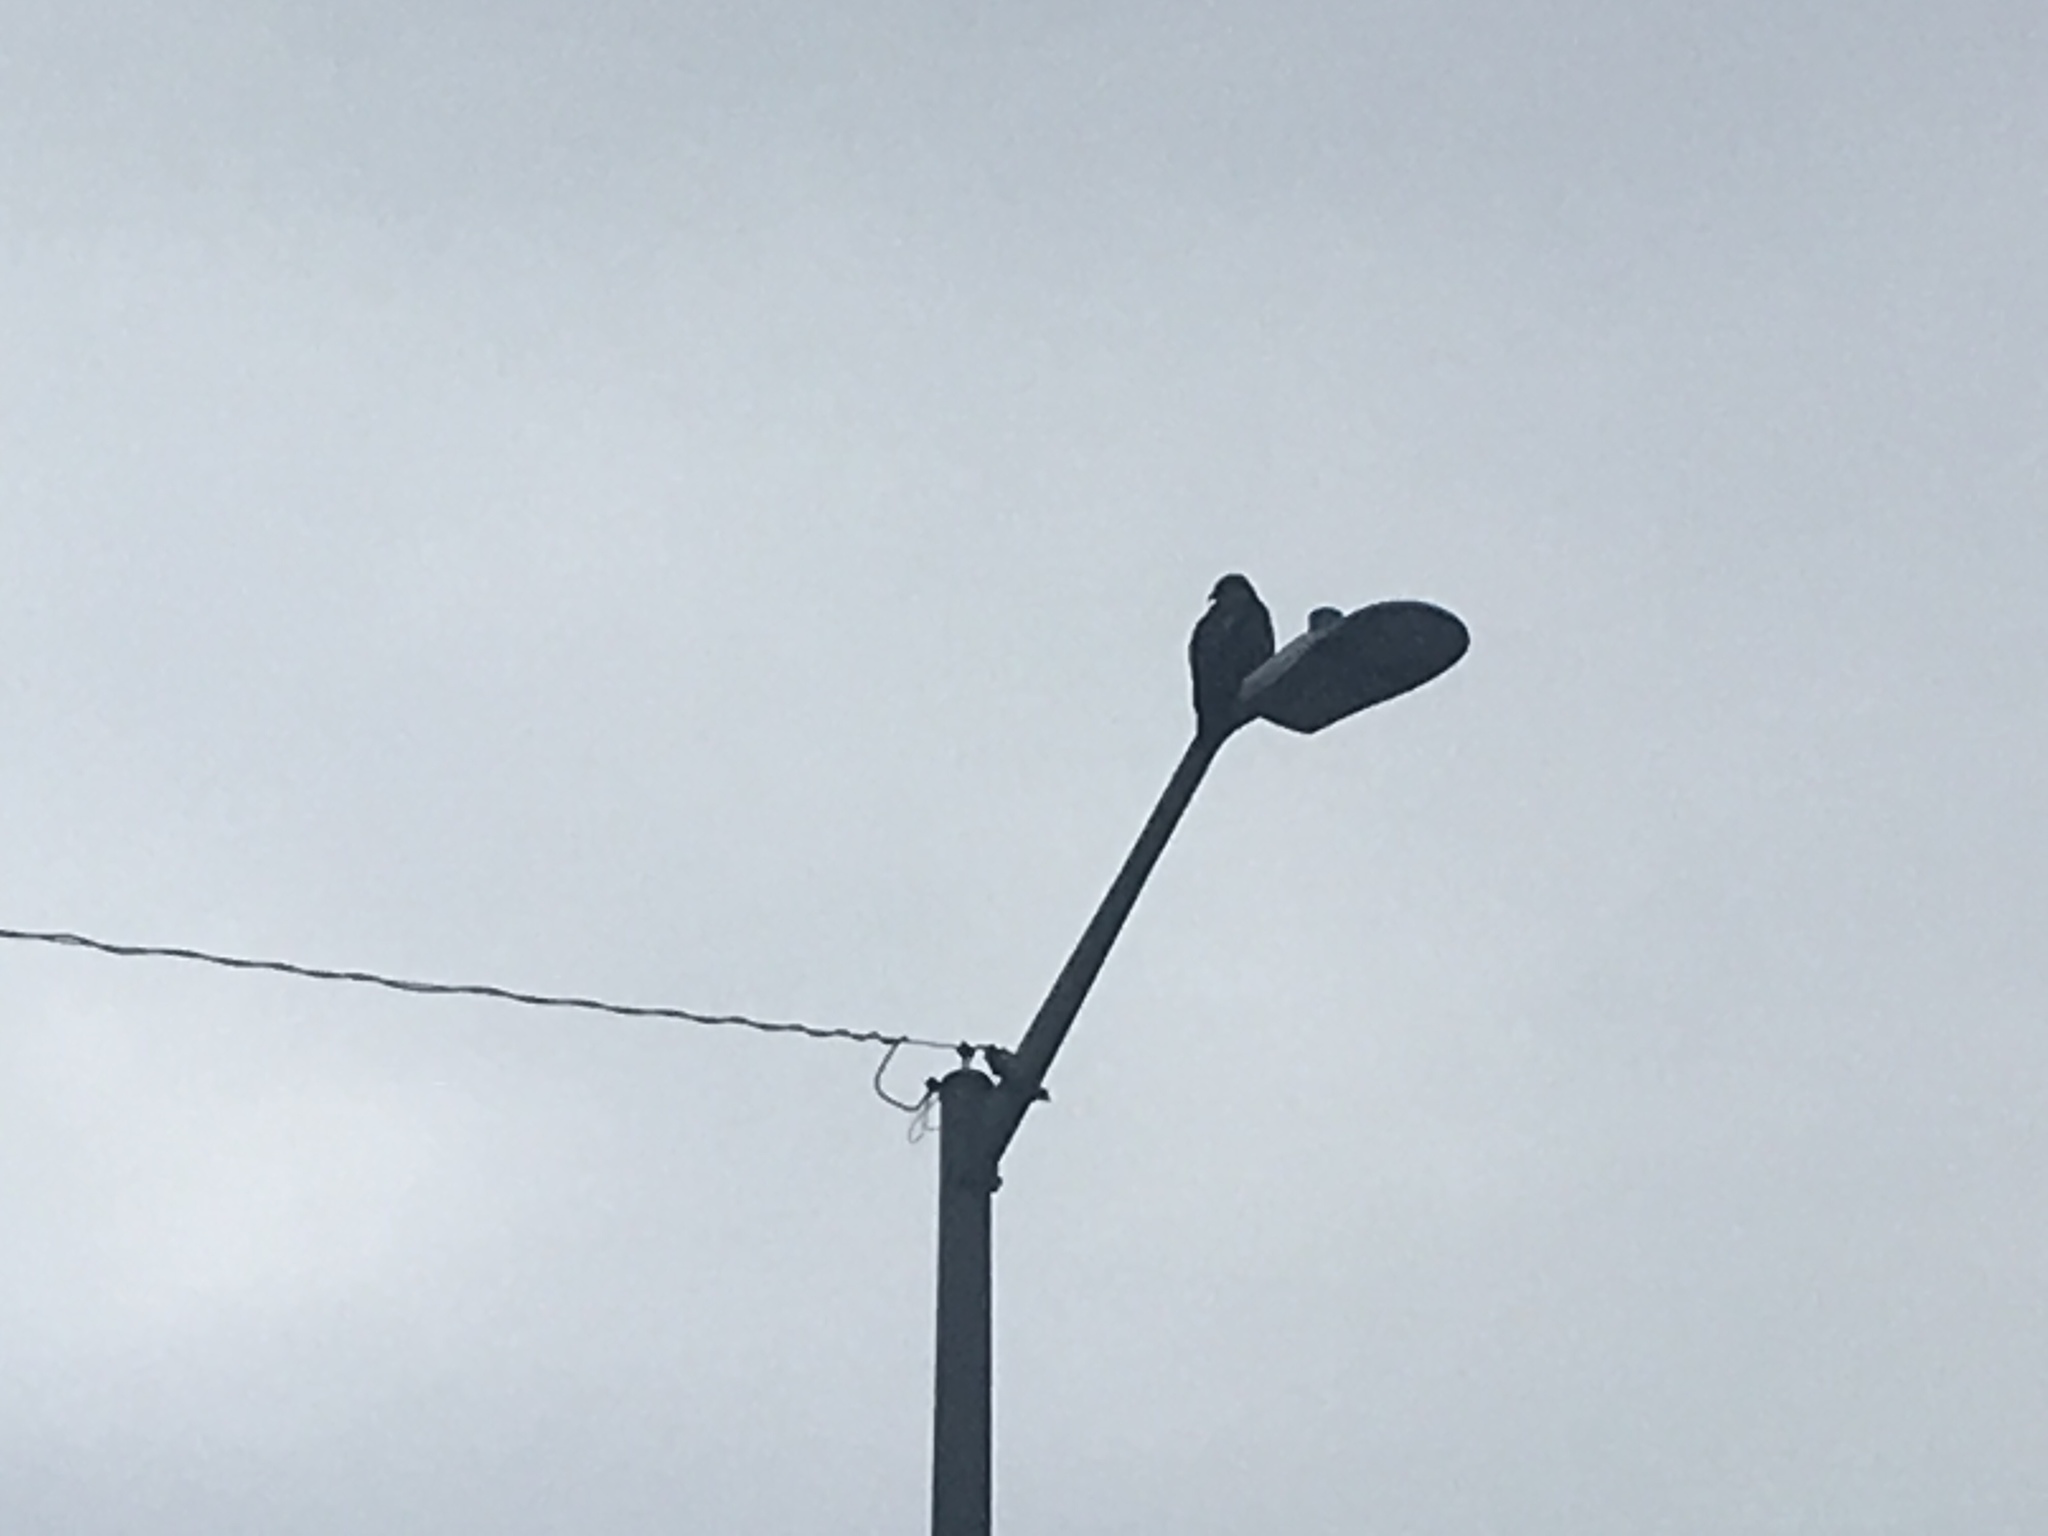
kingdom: Animalia
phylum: Chordata
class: Aves
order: Accipitriformes
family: Accipitridae
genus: Buteo
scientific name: Buteo jamaicensis
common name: Red-tailed hawk
